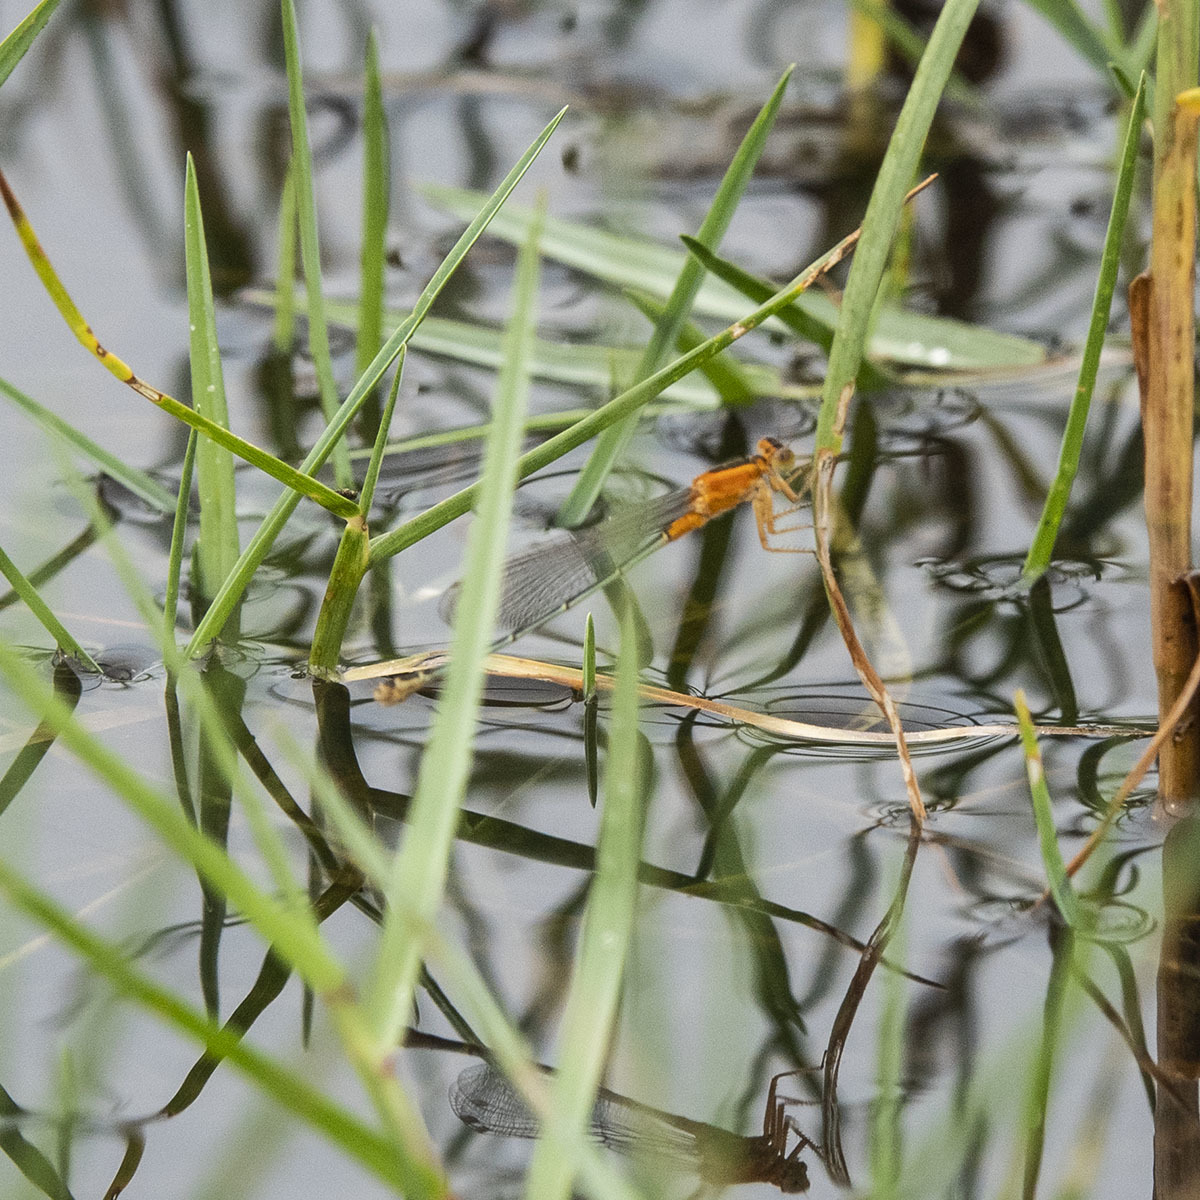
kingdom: Animalia
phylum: Arthropoda
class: Insecta
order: Odonata
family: Coenagrionidae
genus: Ischnura
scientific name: Ischnura senegalensis
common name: Tropical bluetail
